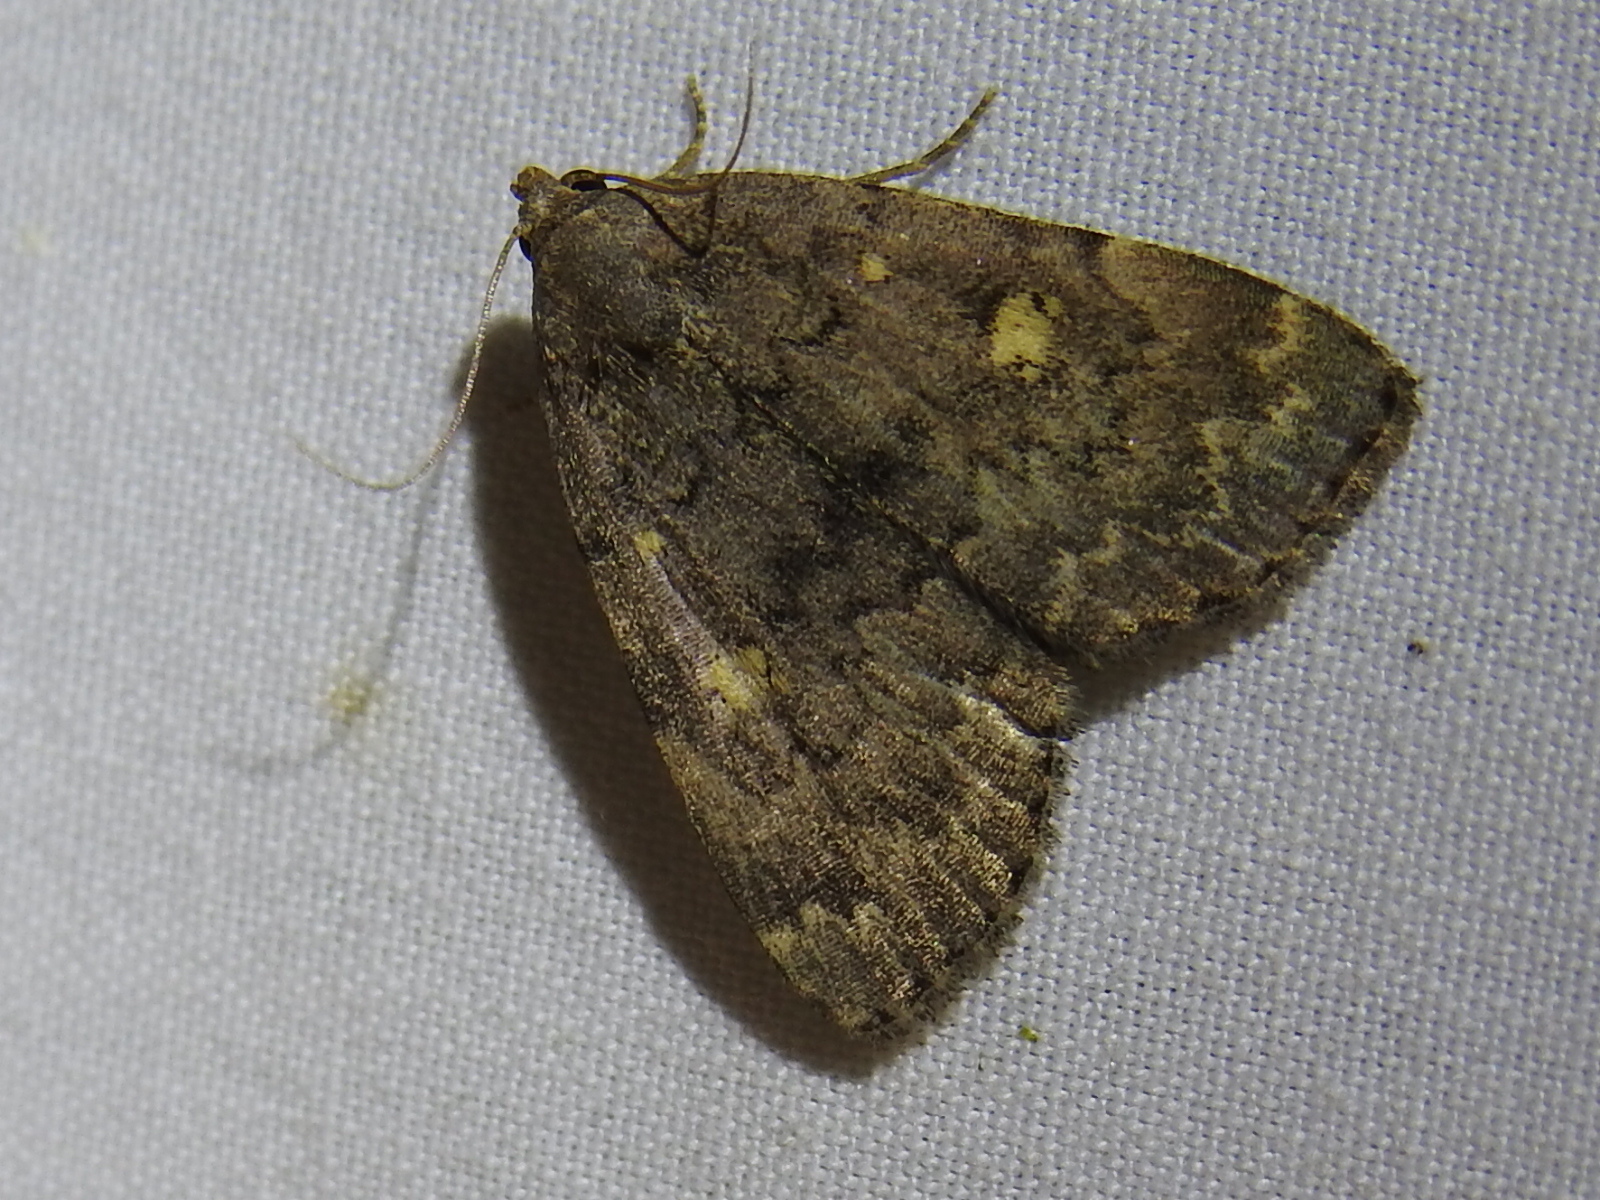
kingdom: Animalia
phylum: Arthropoda
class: Insecta
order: Lepidoptera
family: Erebidae
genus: Idia
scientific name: Idia aemula
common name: Common idia moth
